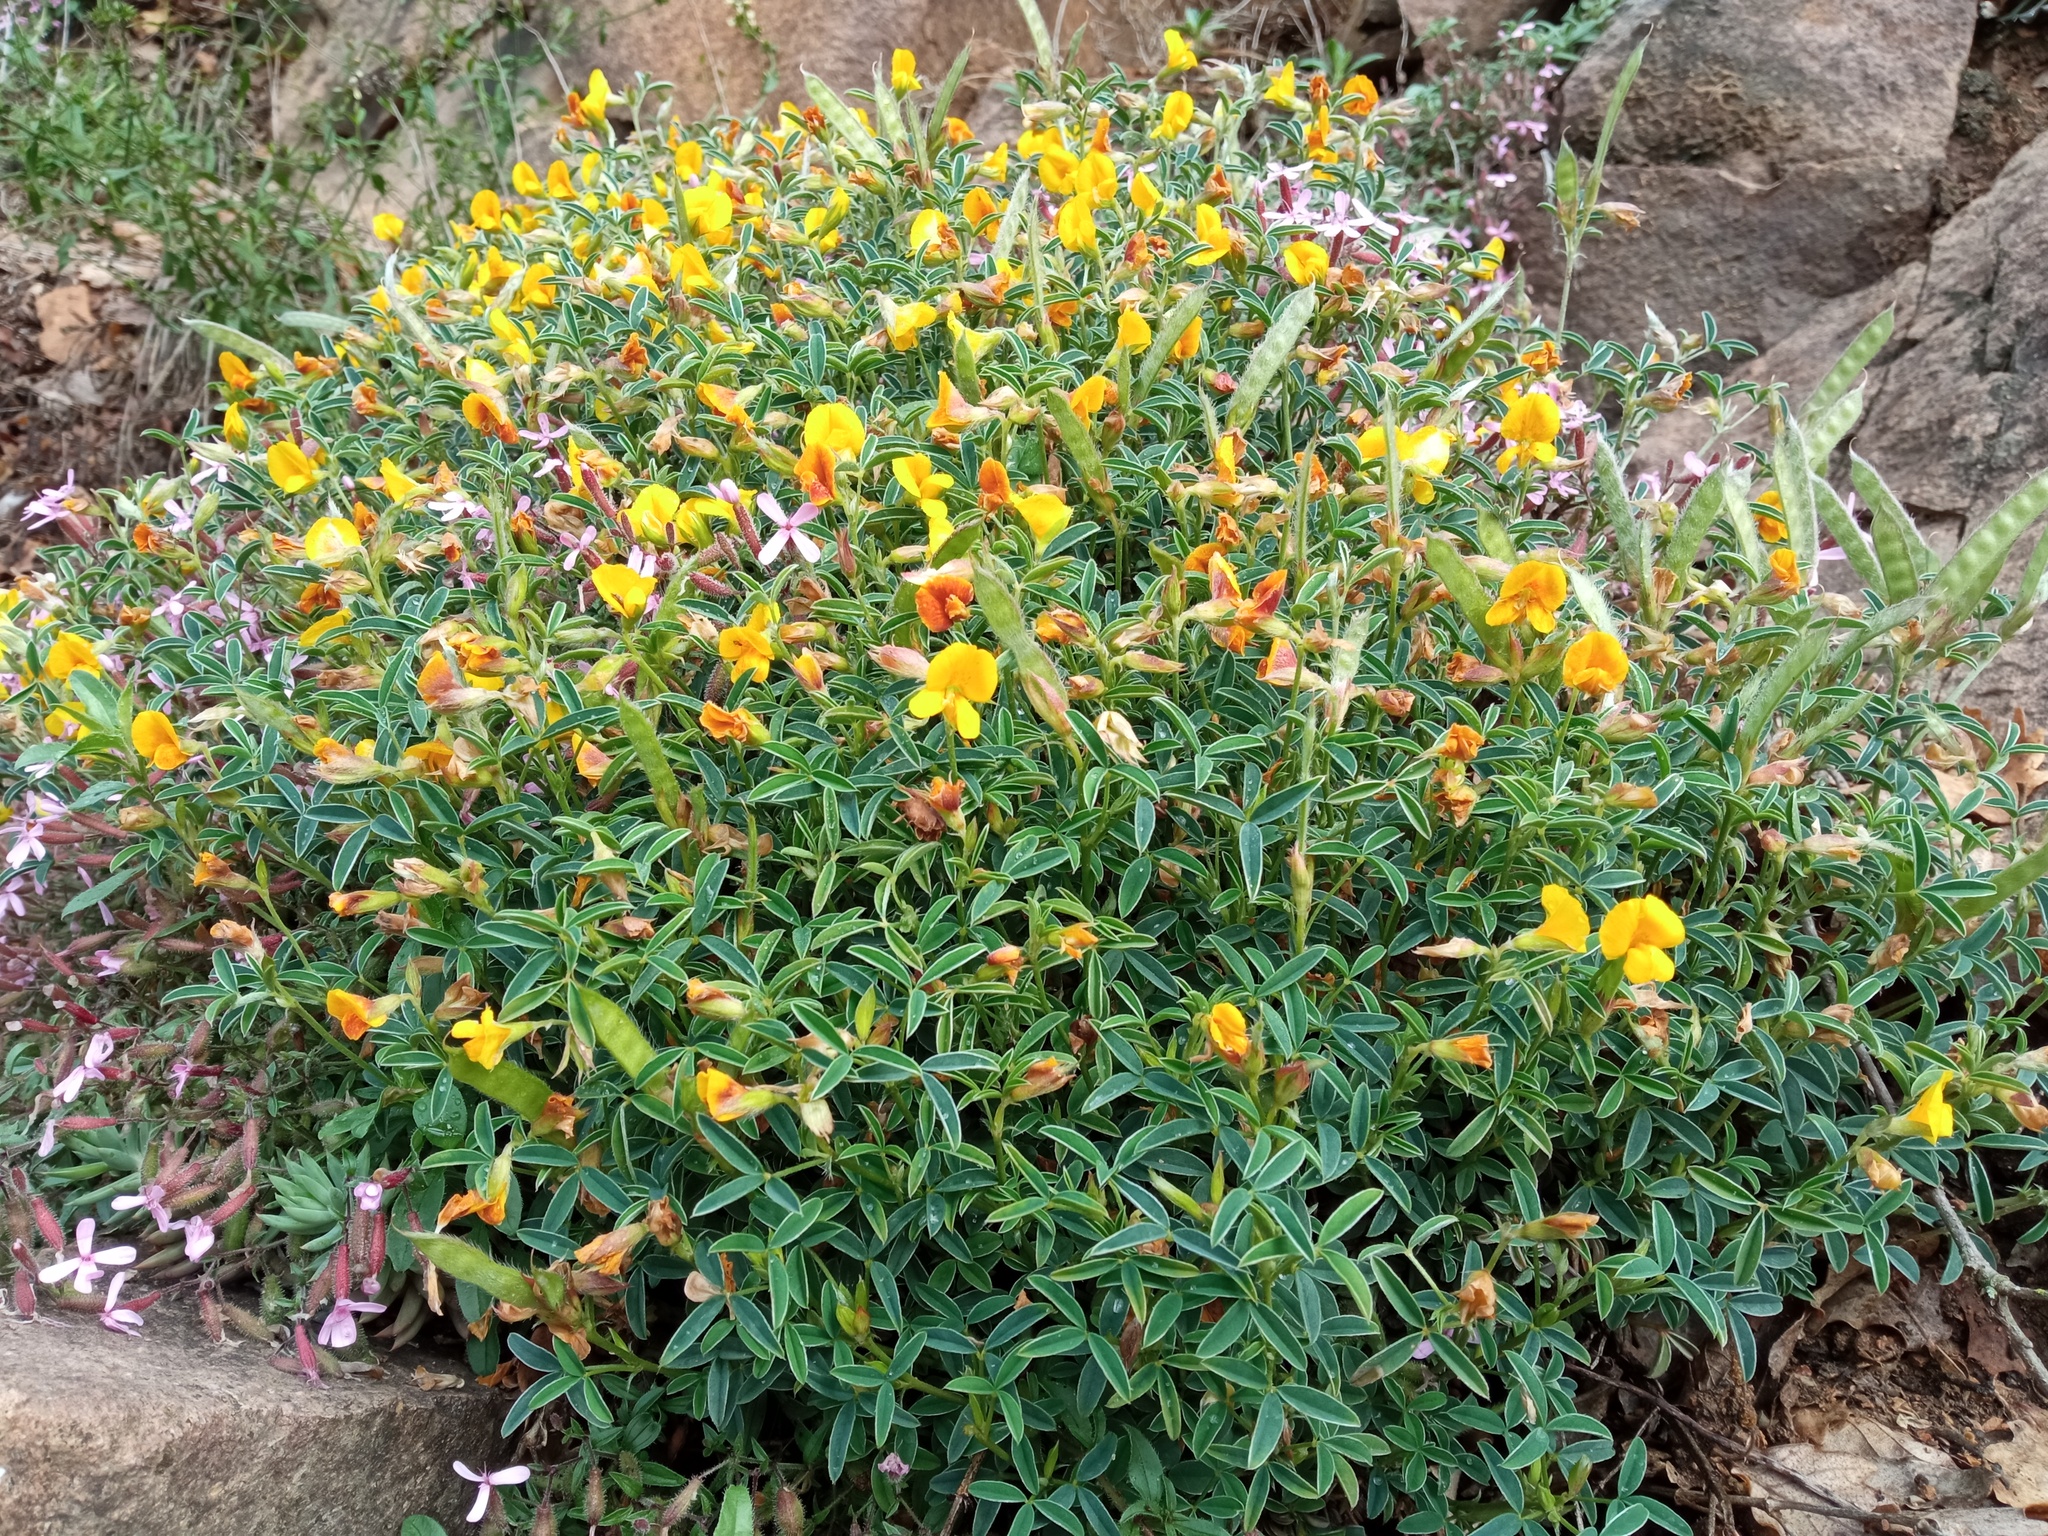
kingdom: Plantae
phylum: Tracheophyta
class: Magnoliopsida
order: Fabales
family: Fabaceae
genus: Argyrolobium
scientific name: Argyrolobium zanonii
